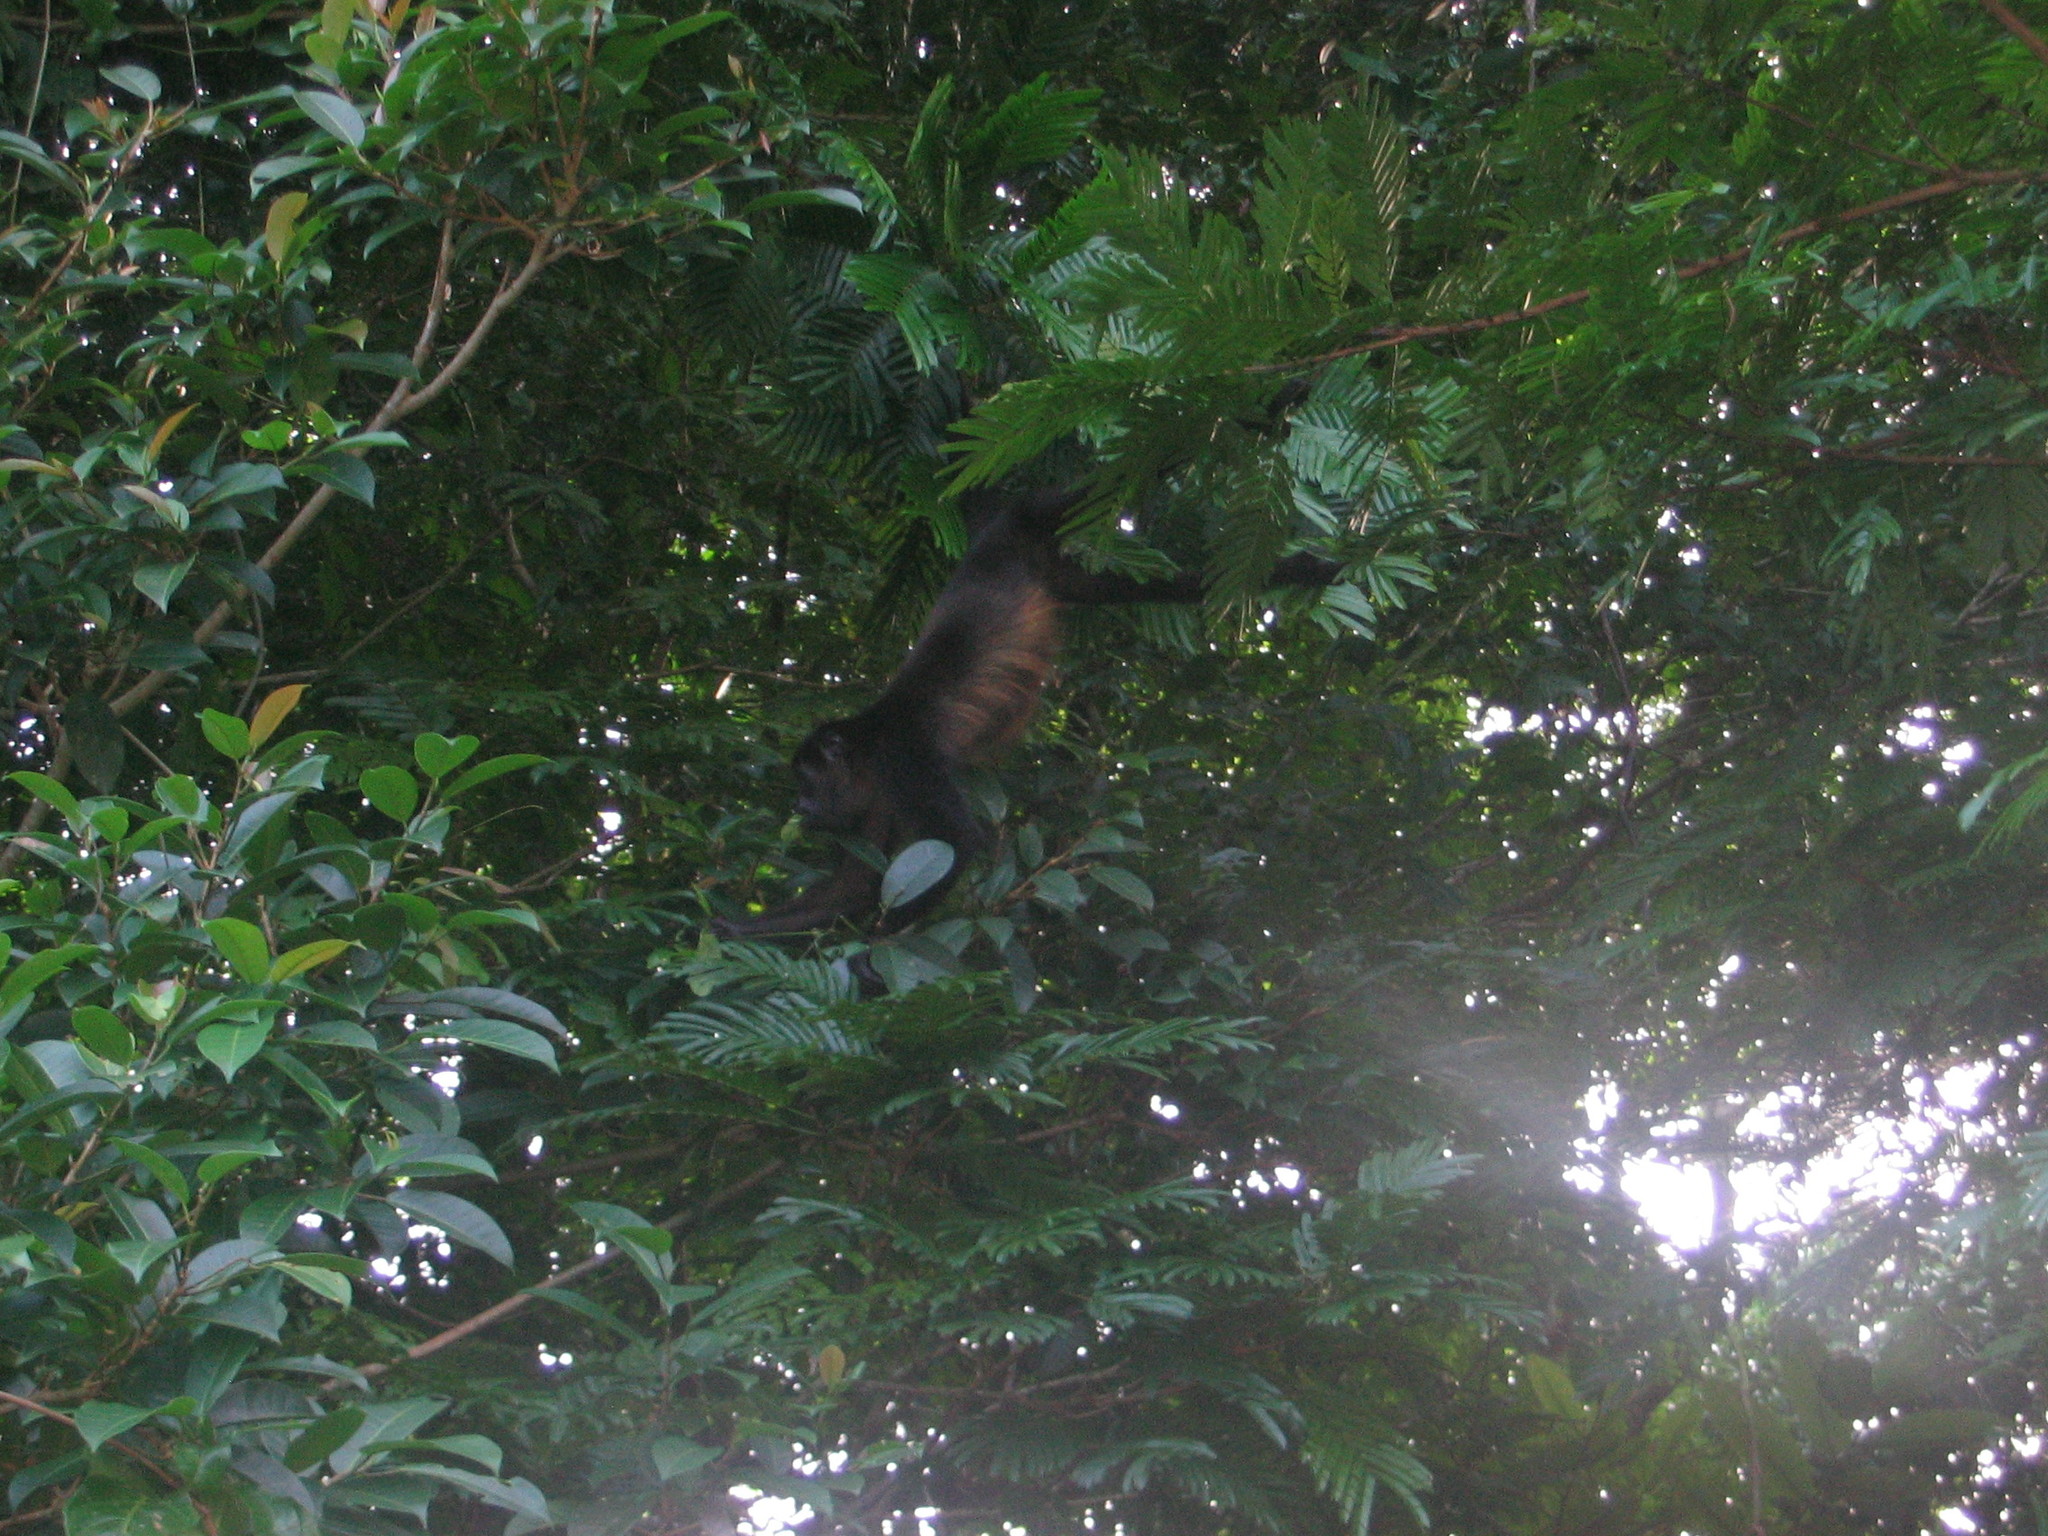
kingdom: Animalia
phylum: Chordata
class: Mammalia
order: Primates
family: Atelidae
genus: Ateles
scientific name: Ateles geoffroyi
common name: Black-handed spider monkey
